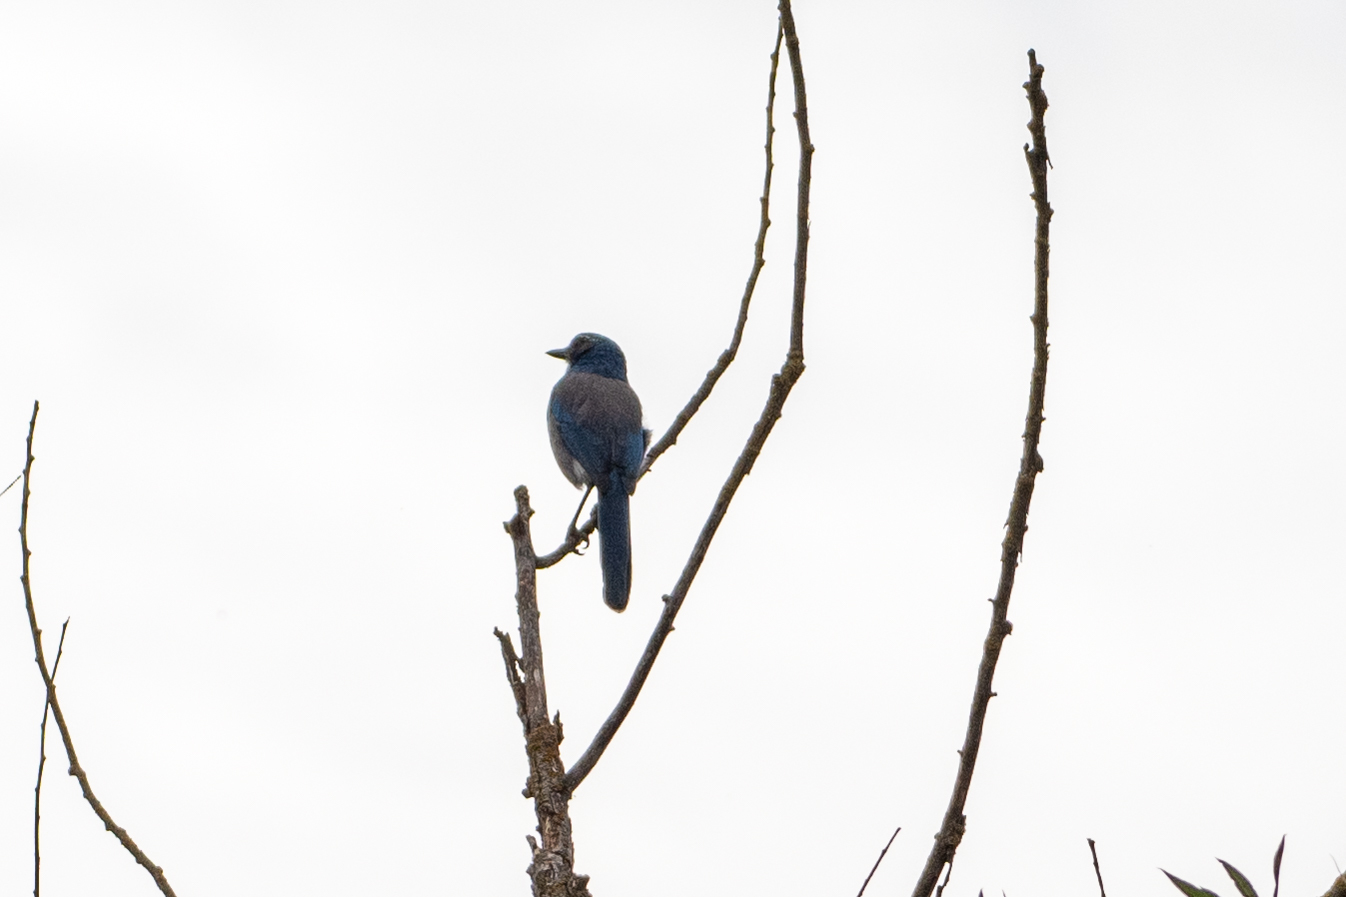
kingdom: Animalia
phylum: Chordata
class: Aves
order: Passeriformes
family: Corvidae
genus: Aphelocoma
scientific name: Aphelocoma californica
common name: California scrub-jay
